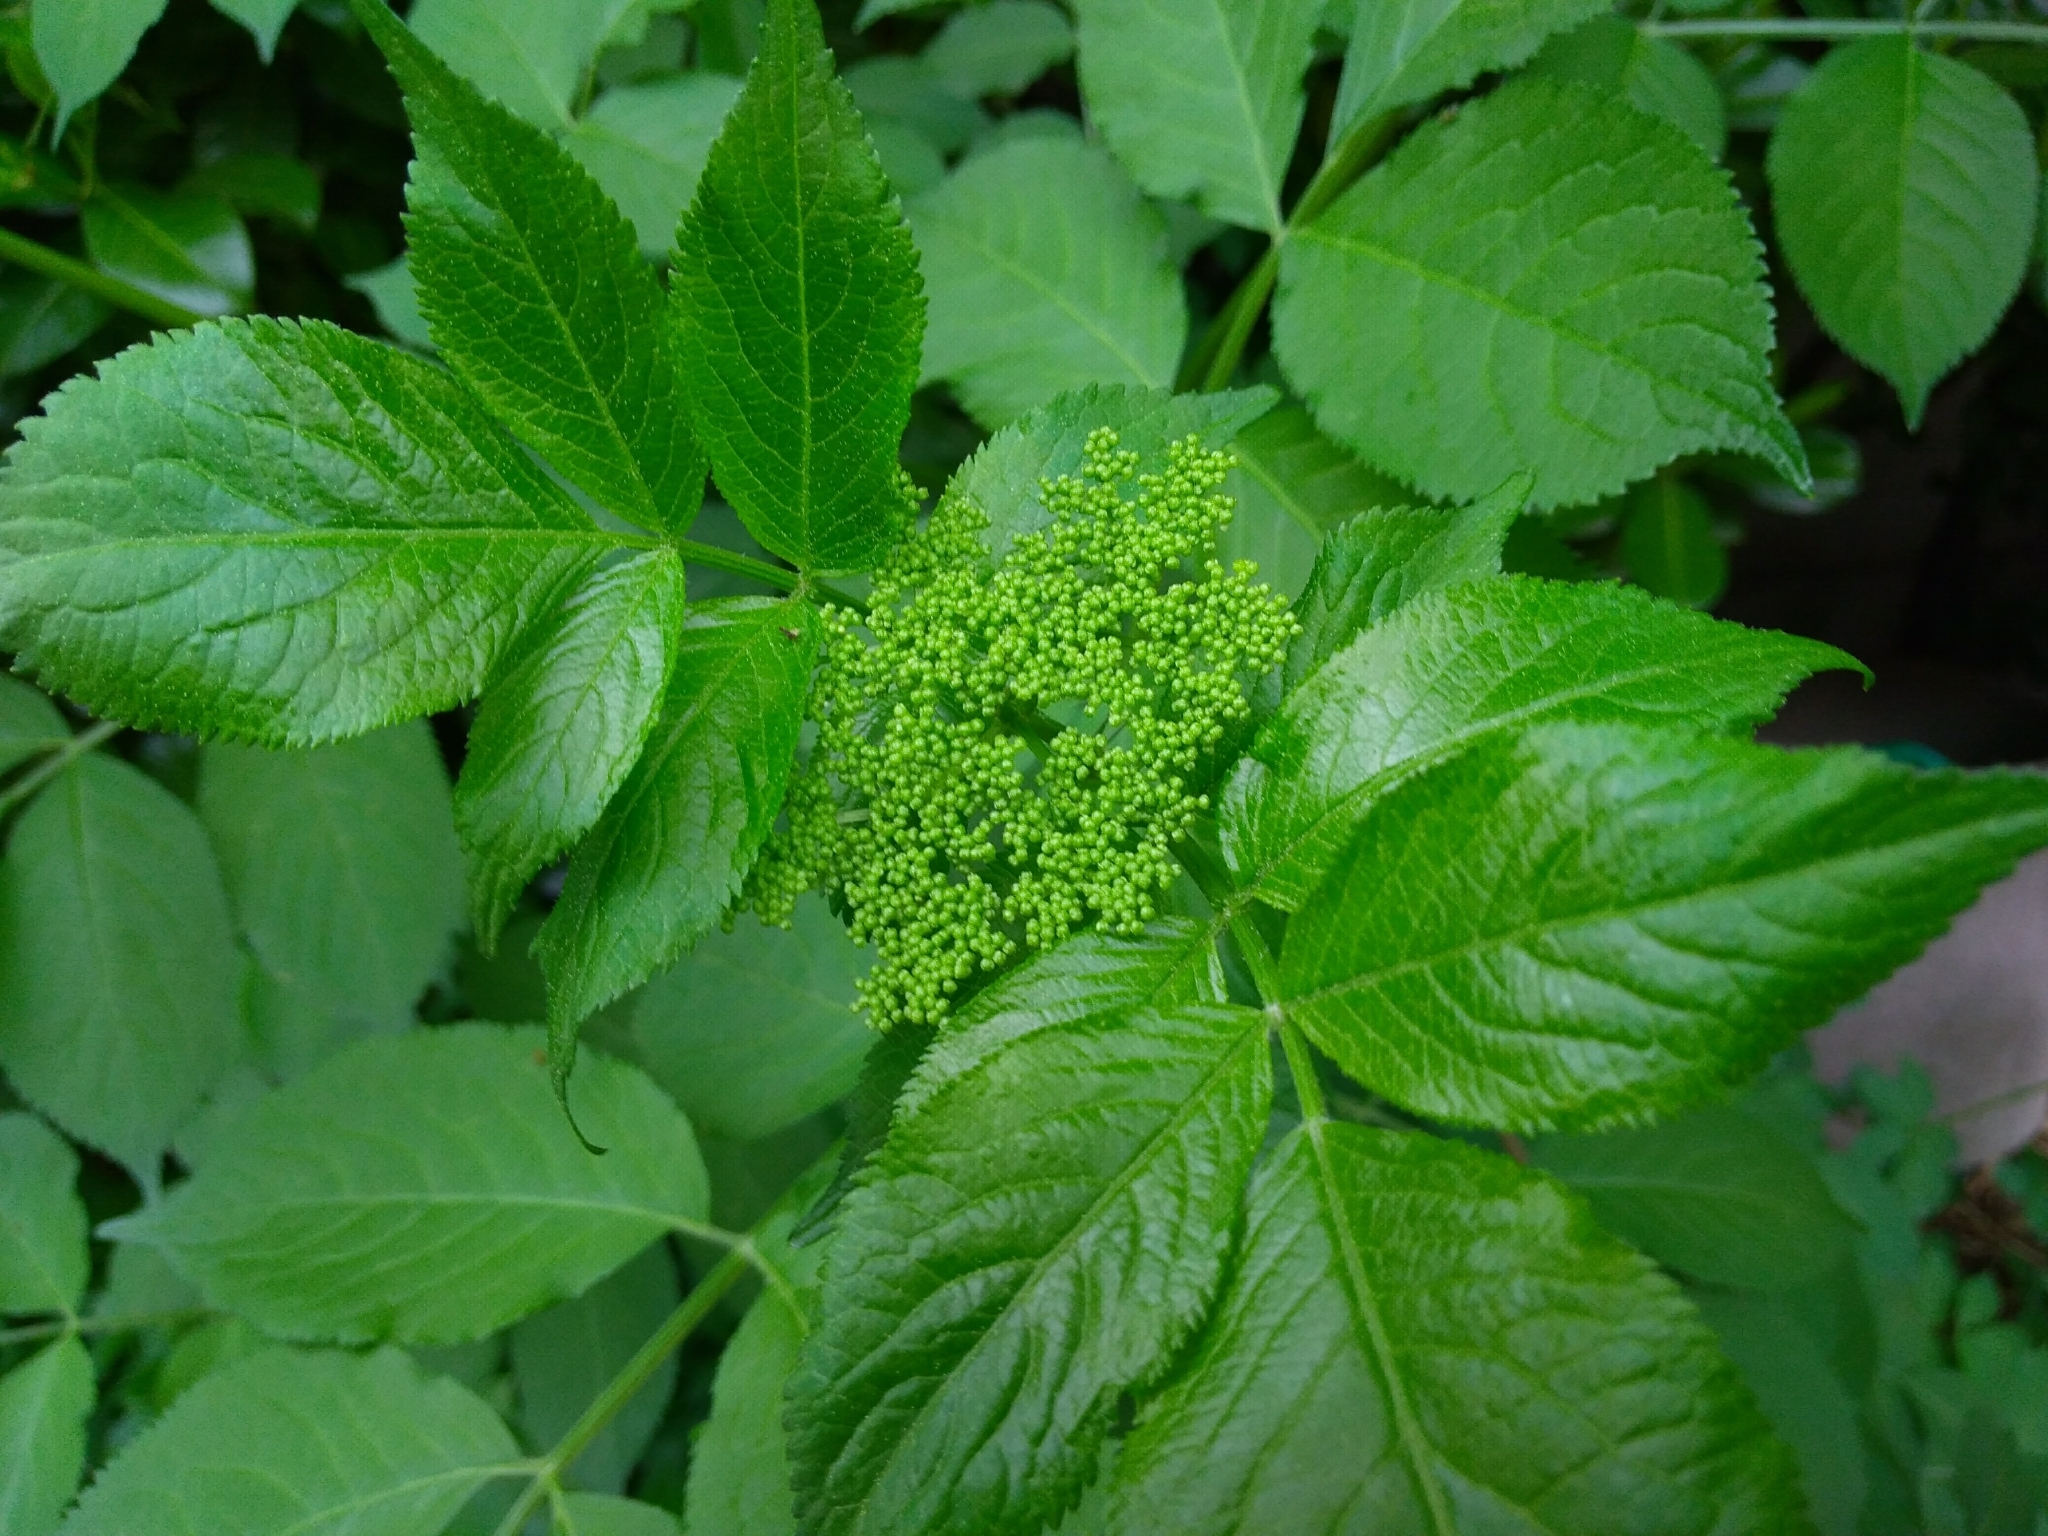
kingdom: Plantae
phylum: Tracheophyta
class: Magnoliopsida
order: Dipsacales
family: Viburnaceae
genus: Sambucus
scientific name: Sambucus nigra
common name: Elder
